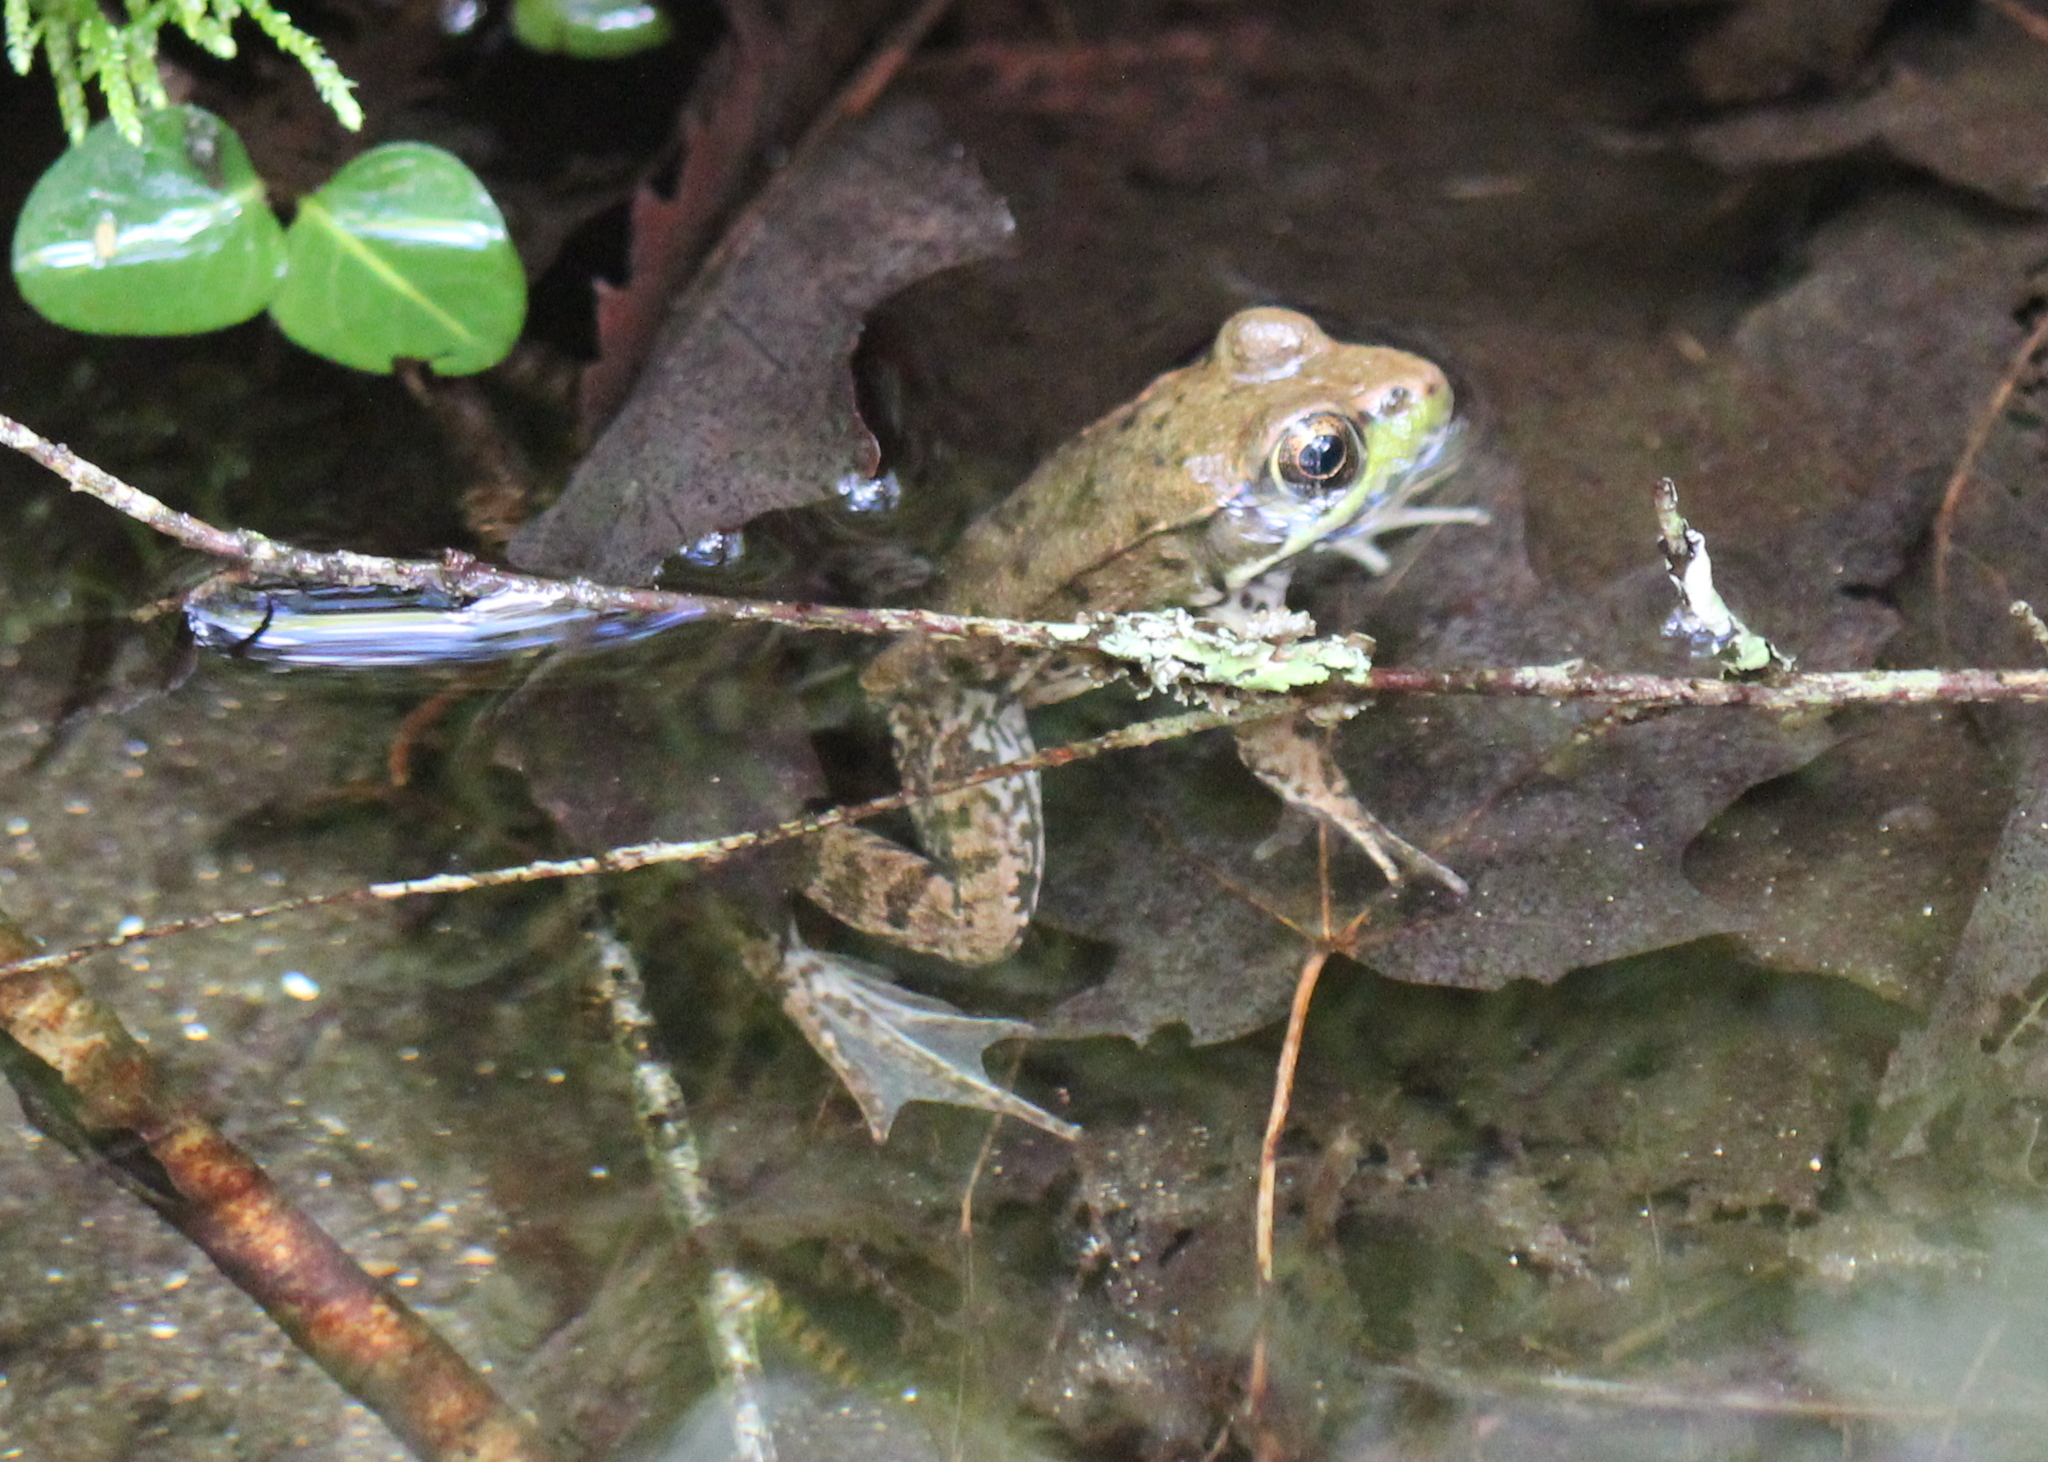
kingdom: Animalia
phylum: Chordata
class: Amphibia
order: Anura
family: Ranidae
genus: Lithobates
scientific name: Lithobates clamitans
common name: Green frog
